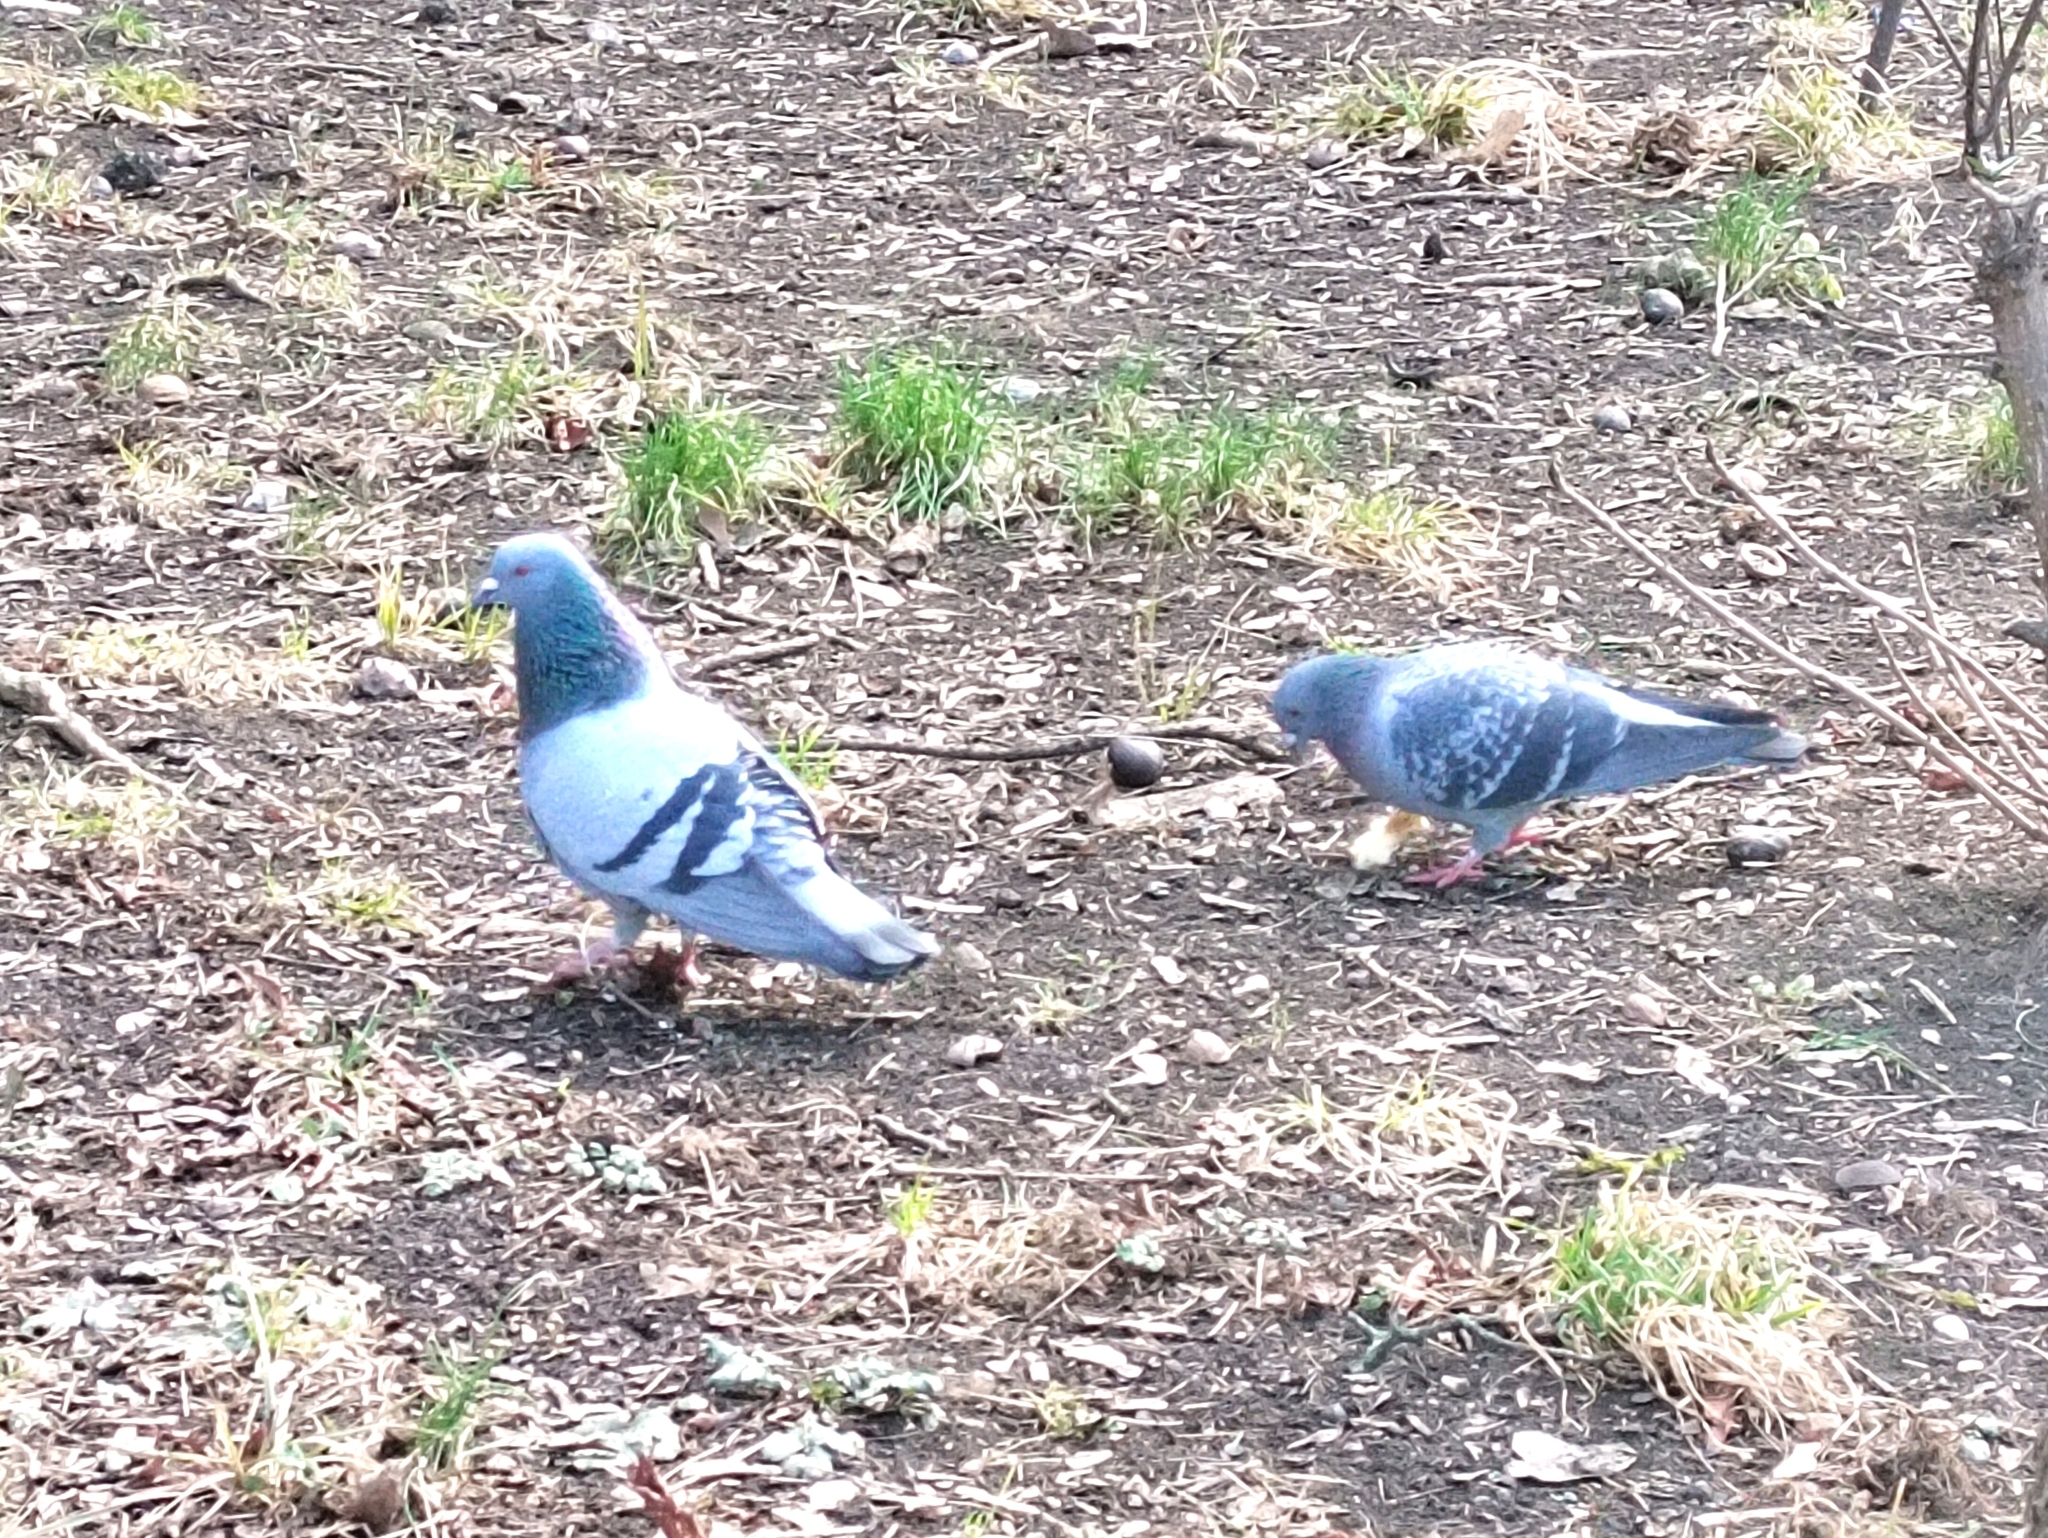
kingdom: Animalia
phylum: Chordata
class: Aves
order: Columbiformes
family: Columbidae
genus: Columba
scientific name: Columba livia
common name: Rock pigeon
